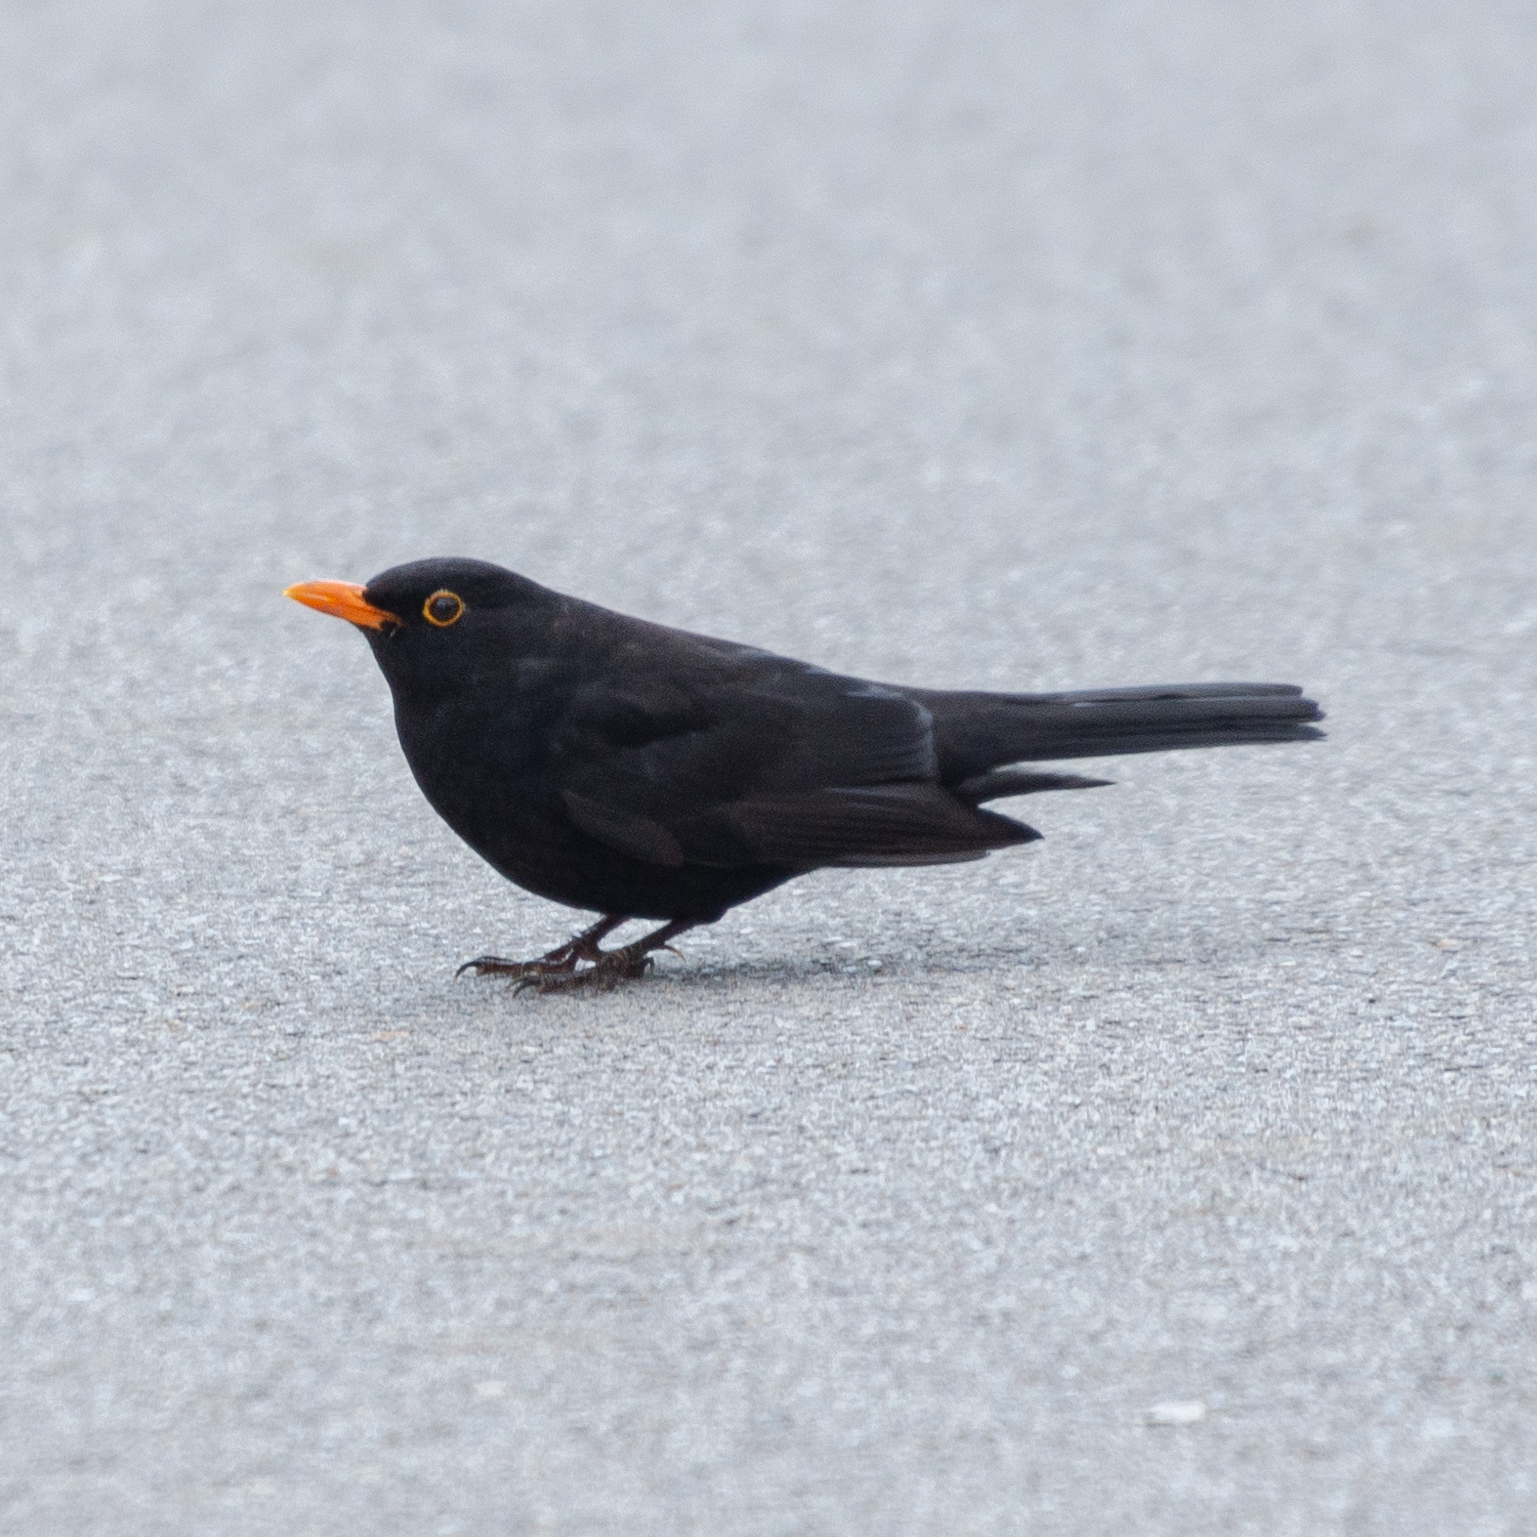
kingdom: Animalia
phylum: Chordata
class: Aves
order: Passeriformes
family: Turdidae
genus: Turdus
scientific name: Turdus merula
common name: Common blackbird
